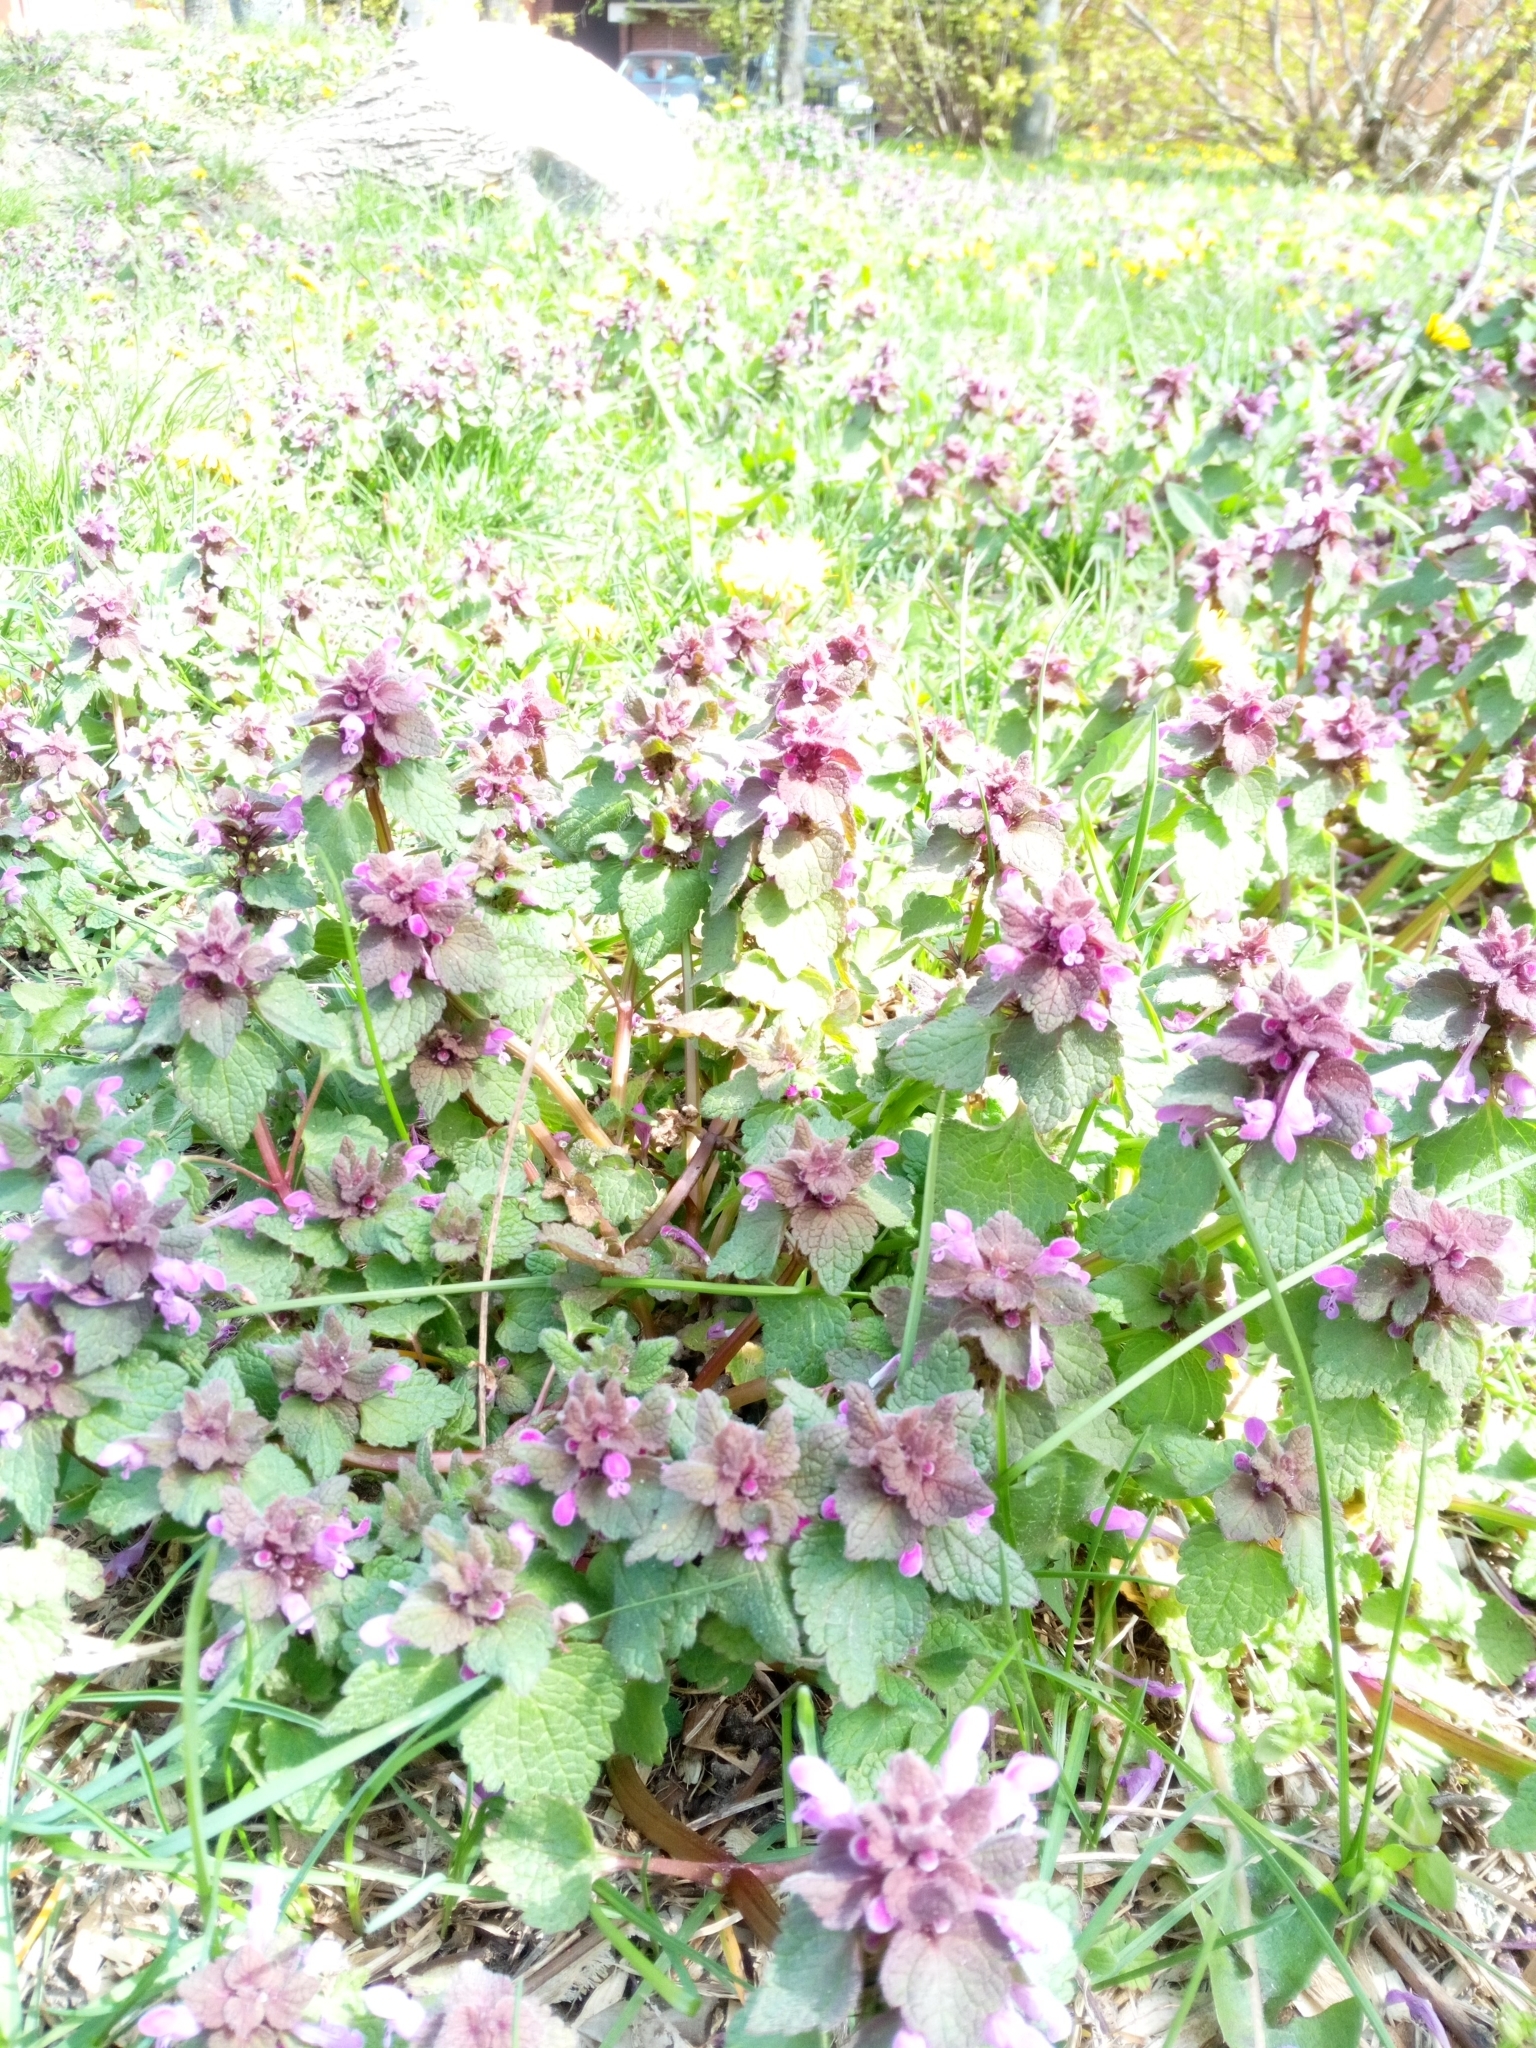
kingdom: Plantae
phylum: Tracheophyta
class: Magnoliopsida
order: Lamiales
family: Lamiaceae
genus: Lamium
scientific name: Lamium purpureum
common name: Red dead-nettle
